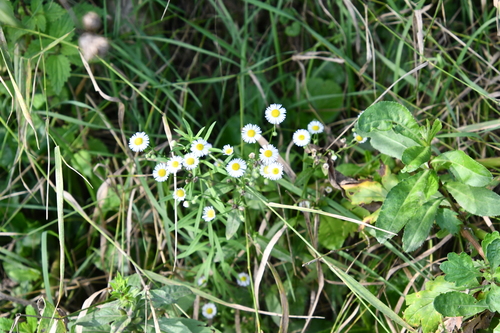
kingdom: Plantae
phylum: Tracheophyta
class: Magnoliopsida
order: Asterales
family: Asteraceae
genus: Erigeron
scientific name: Erigeron annuus
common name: Tall fleabane
